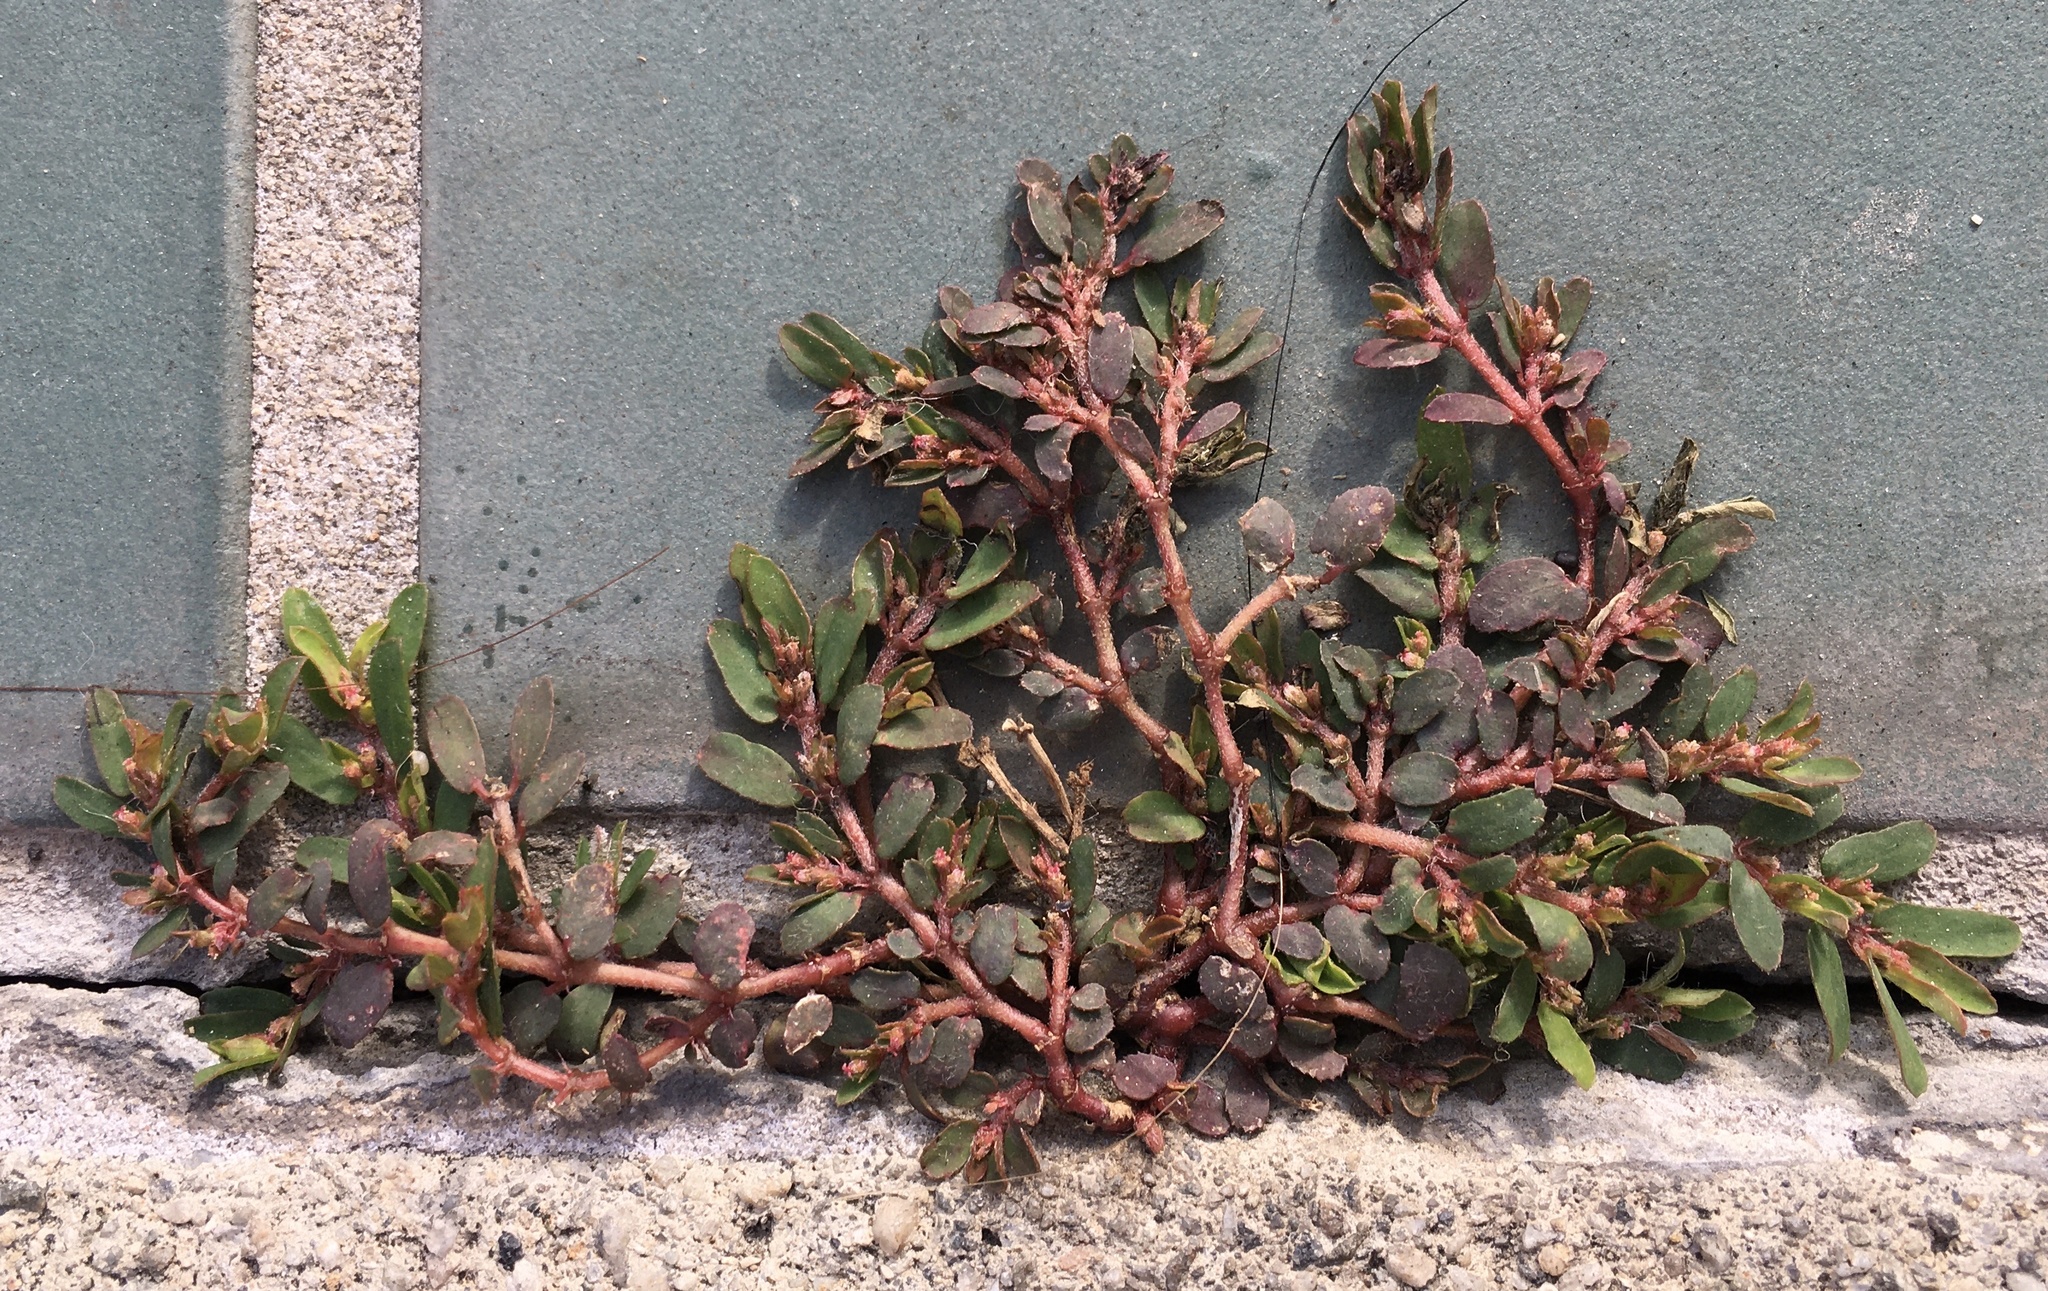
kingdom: Plantae
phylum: Tracheophyta
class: Magnoliopsida
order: Malpighiales
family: Euphorbiaceae
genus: Euphorbia
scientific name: Euphorbia maculata
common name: Spotted spurge
